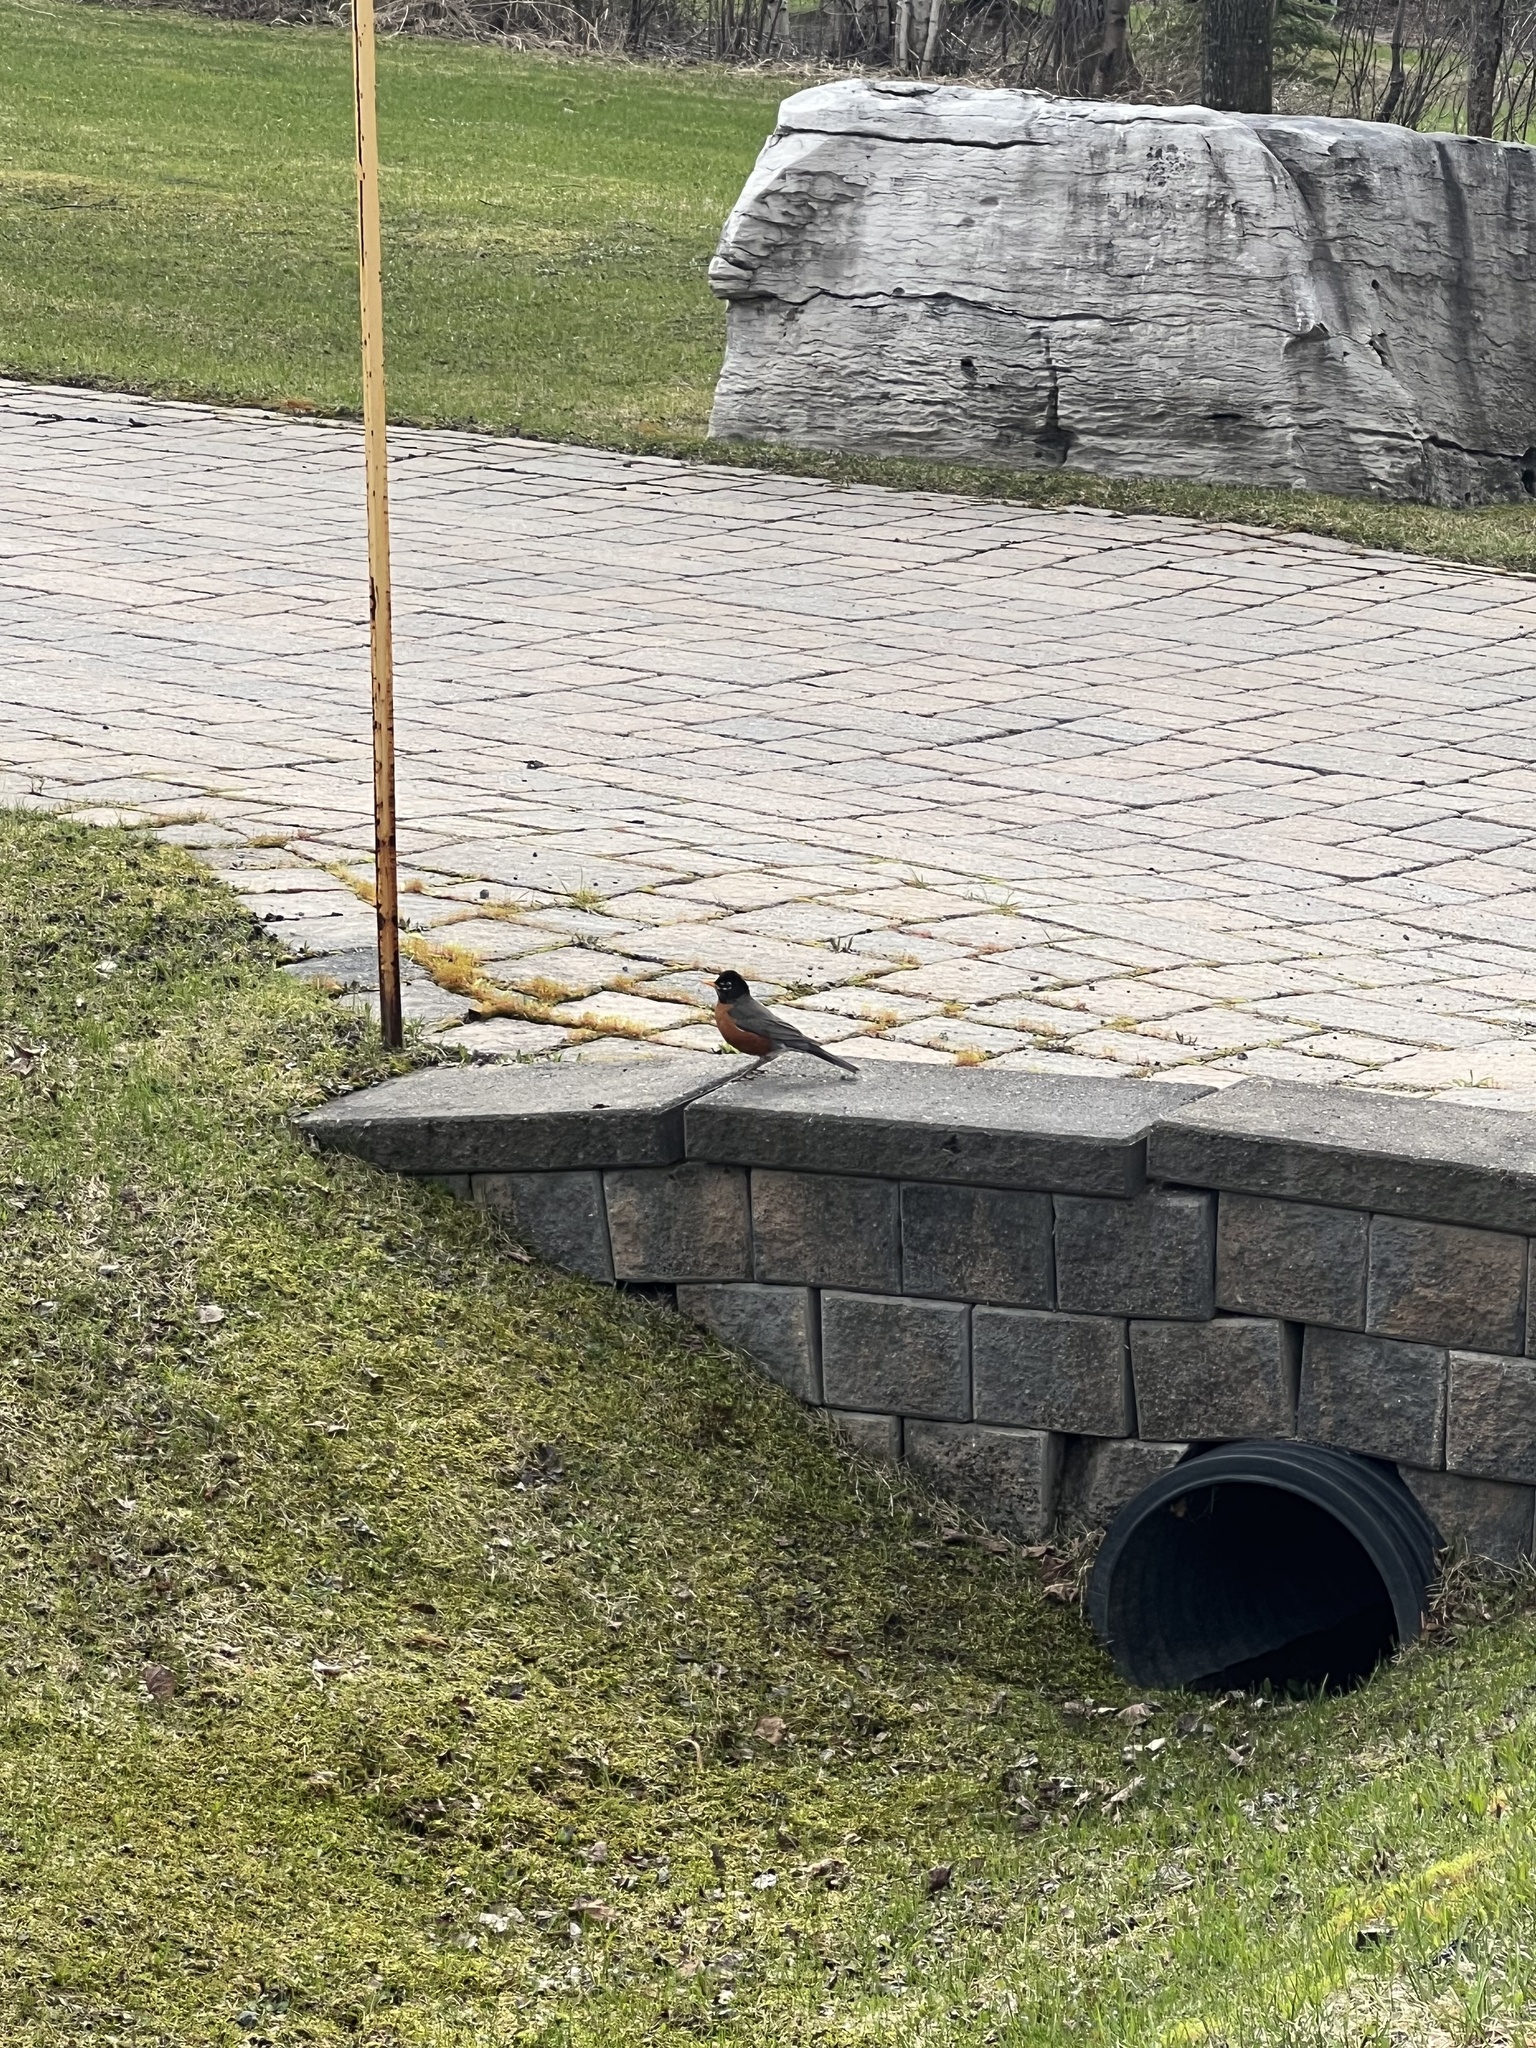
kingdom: Animalia
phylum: Chordata
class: Aves
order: Passeriformes
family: Turdidae
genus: Turdus
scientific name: Turdus migratorius
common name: American robin
